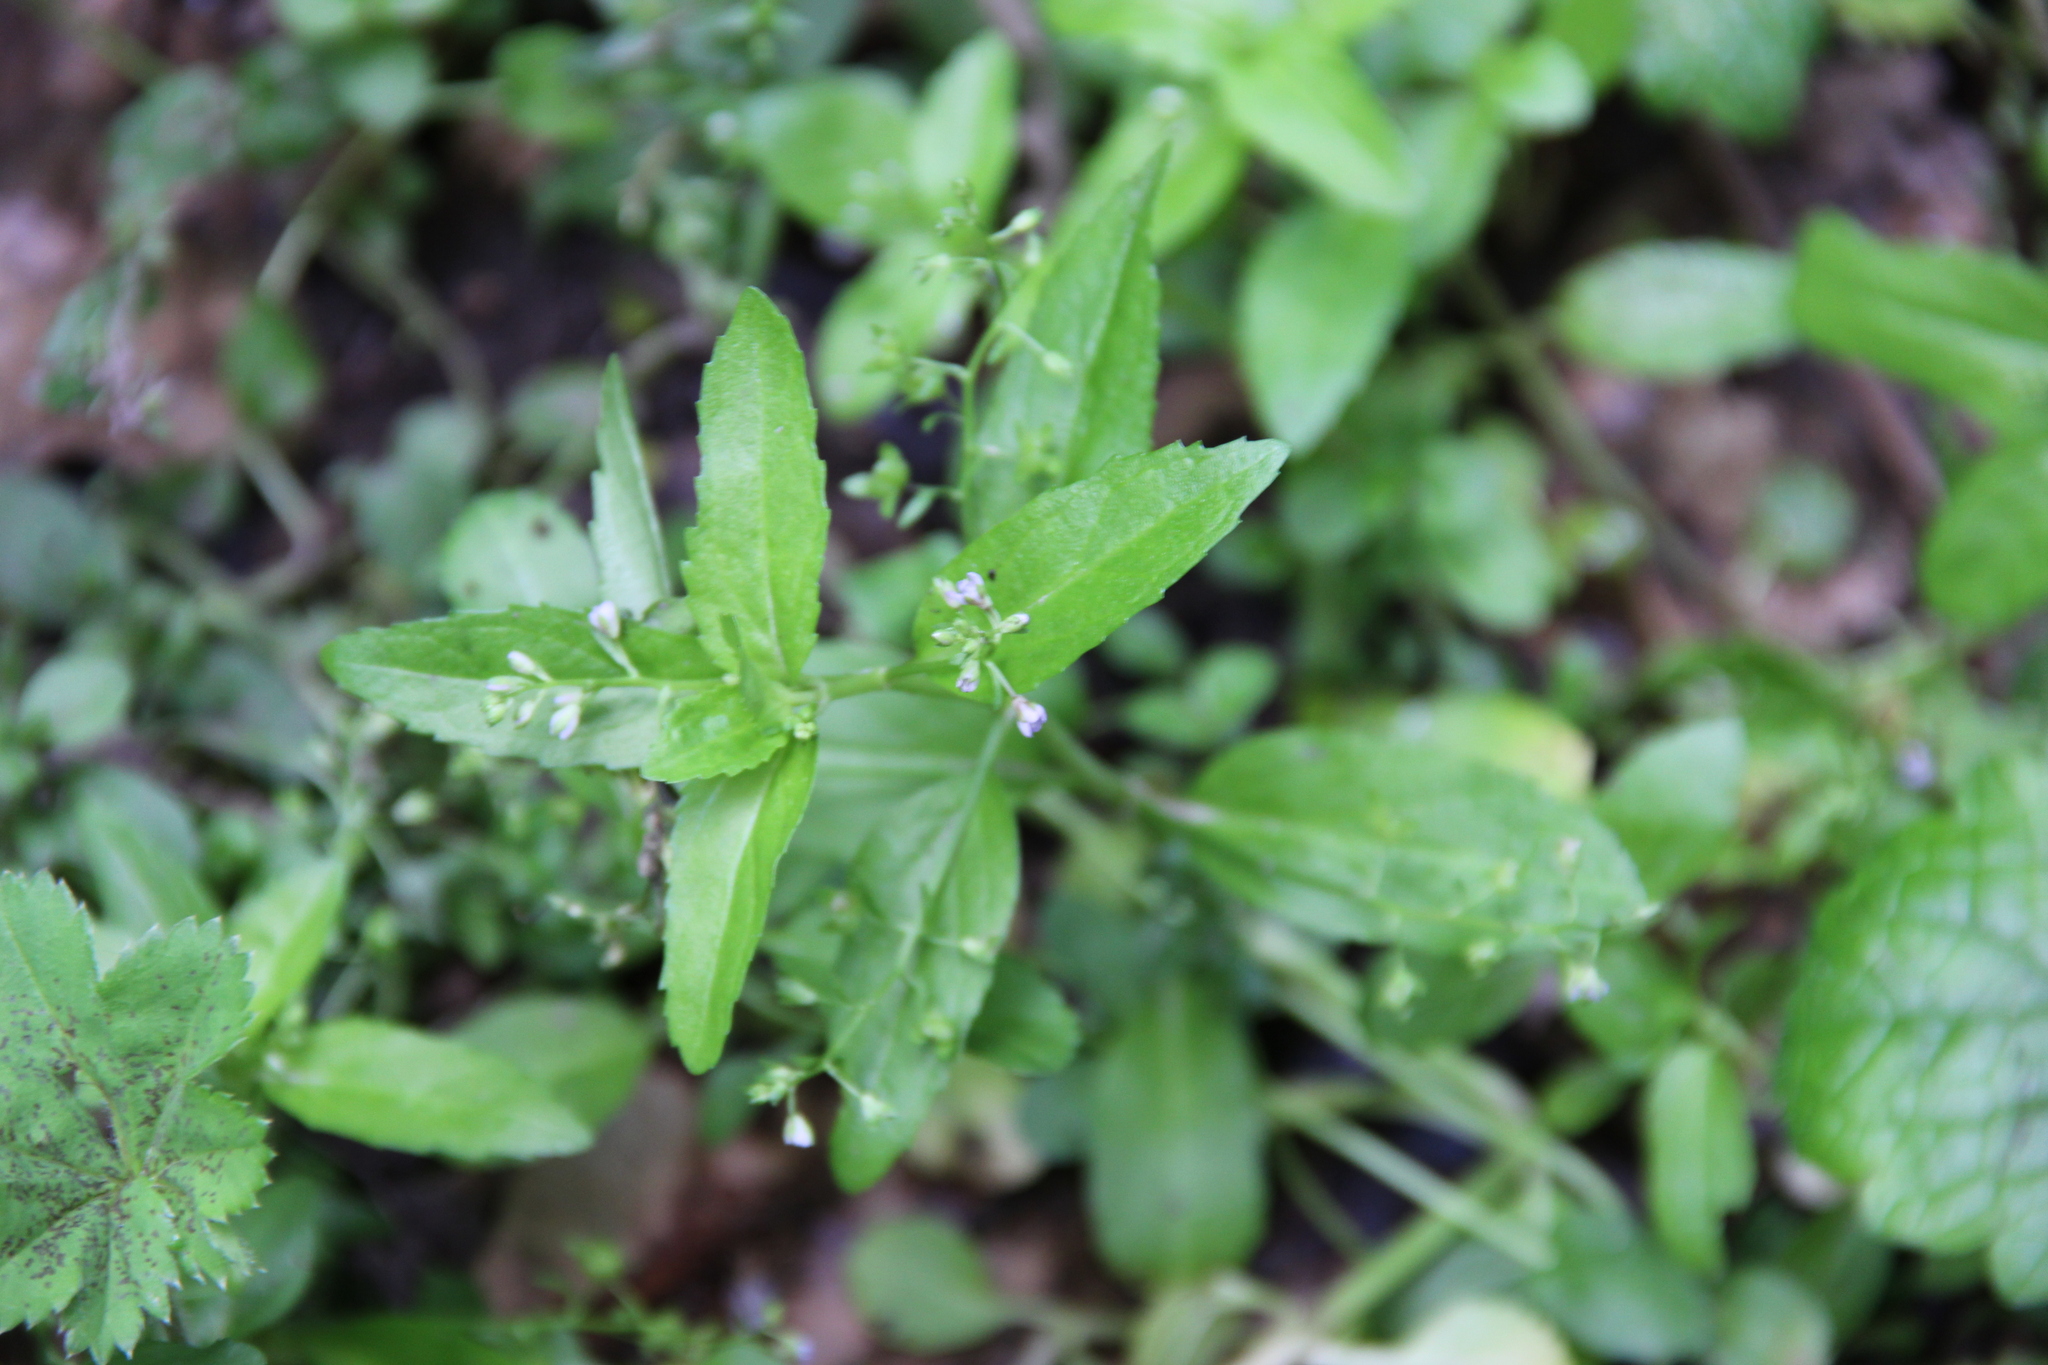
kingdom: Plantae
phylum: Tracheophyta
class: Magnoliopsida
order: Lamiales
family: Plantaginaceae
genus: Veronica
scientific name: Veronica beccabunga
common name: Brooklime
